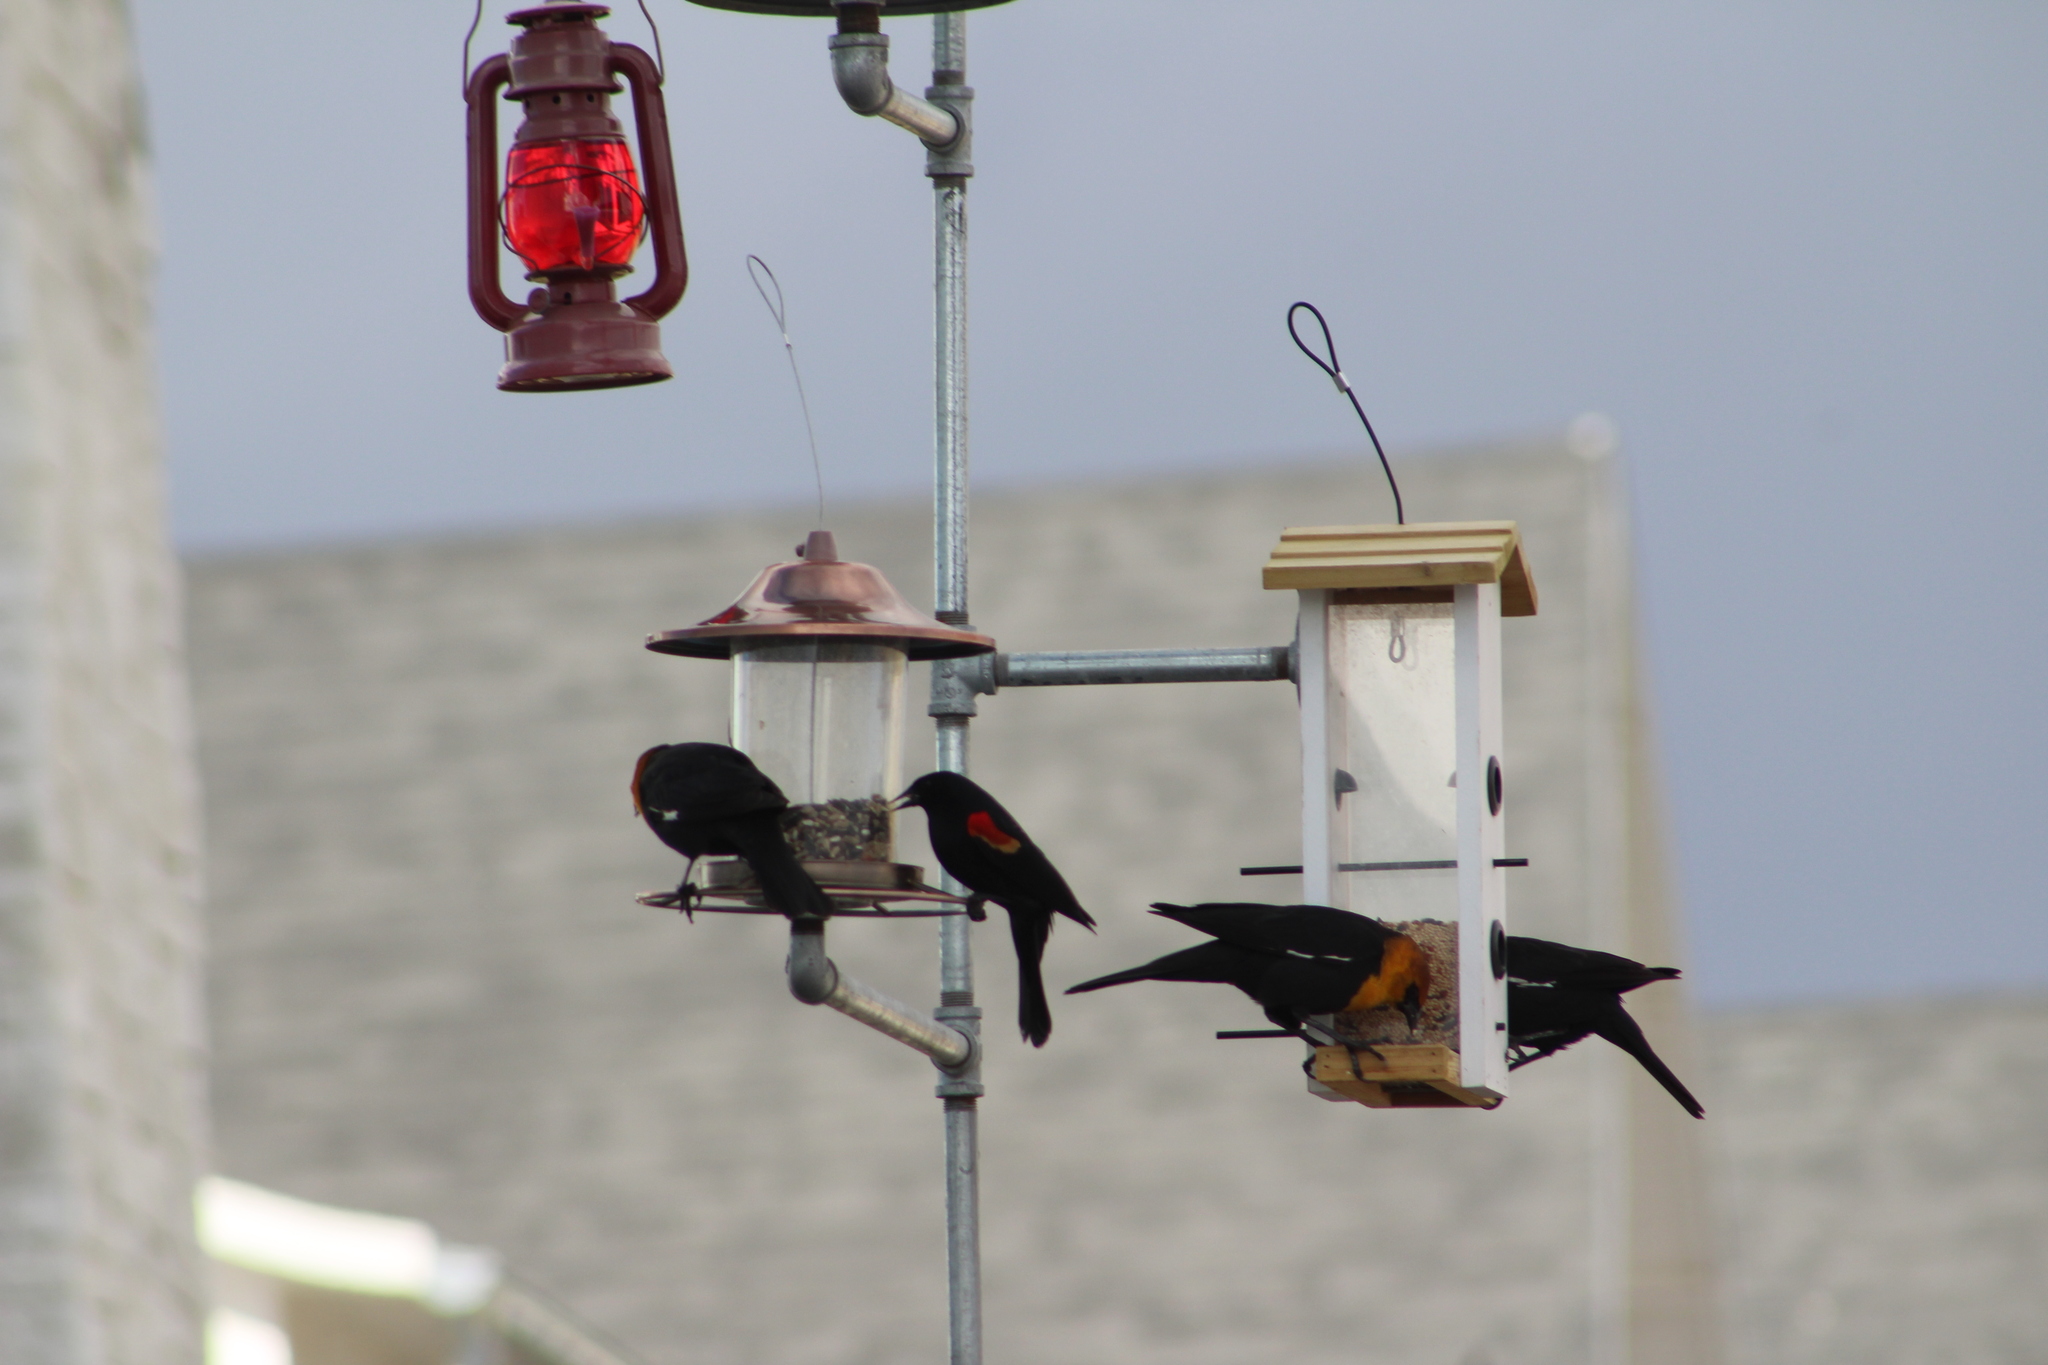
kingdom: Animalia
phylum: Chordata
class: Aves
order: Passeriformes
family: Icteridae
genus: Agelaius
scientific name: Agelaius phoeniceus
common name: Red-winged blackbird
